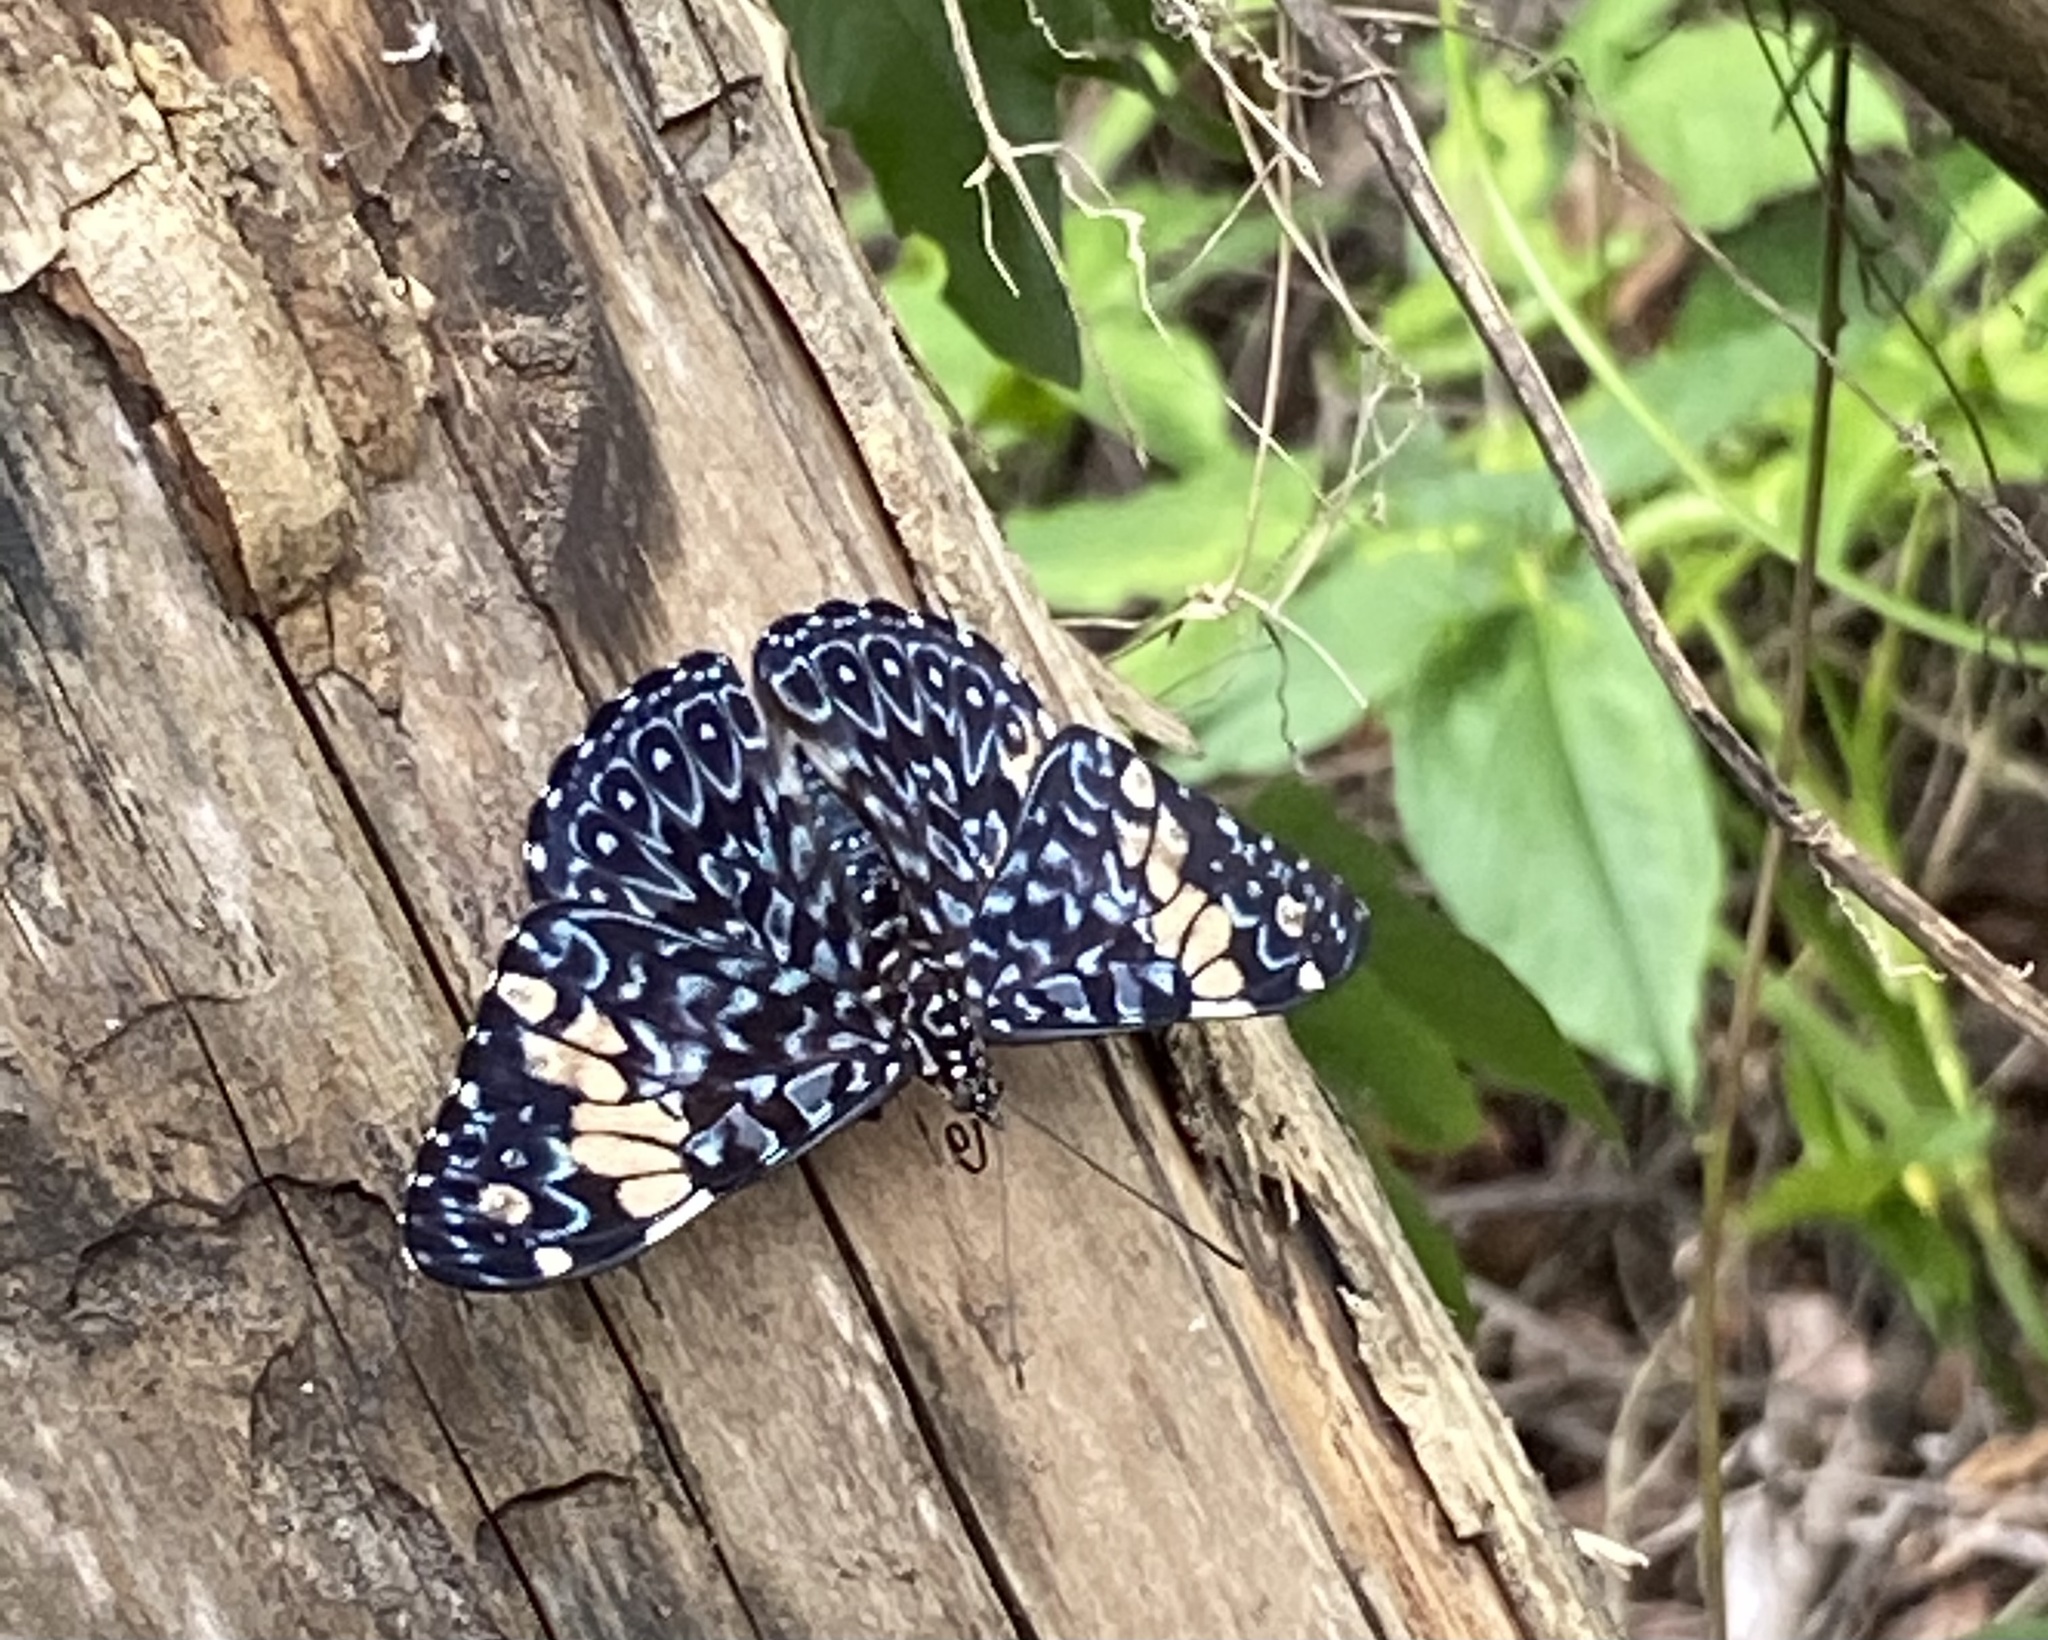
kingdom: Animalia
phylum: Arthropoda
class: Insecta
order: Lepidoptera
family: Nymphalidae
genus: Hamadryas
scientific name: Hamadryas amphinome
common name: Red cracker
